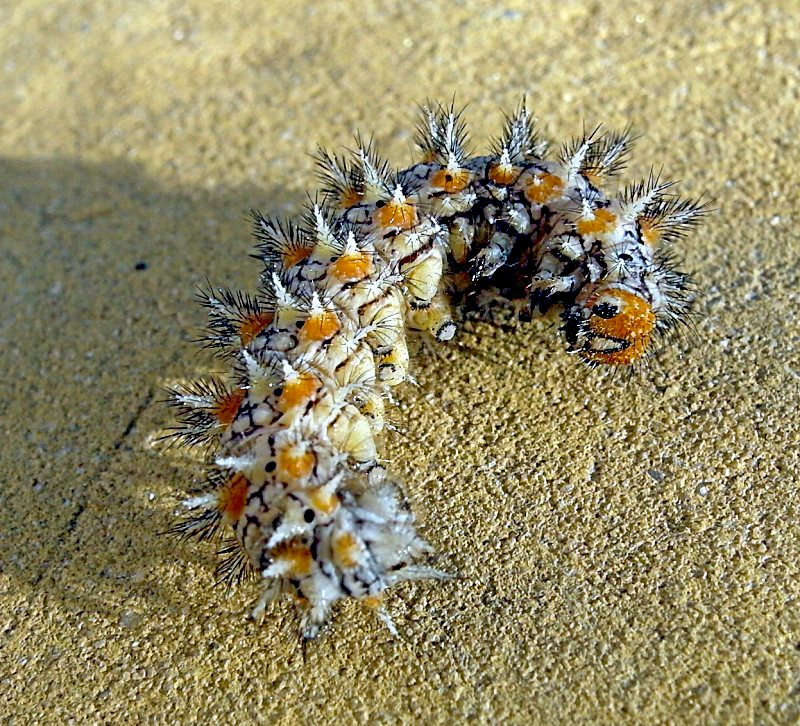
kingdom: Animalia
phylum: Arthropoda
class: Insecta
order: Lepidoptera
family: Nymphalidae
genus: Melitaea
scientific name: Melitaea didyma
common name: Spotted fritillary
